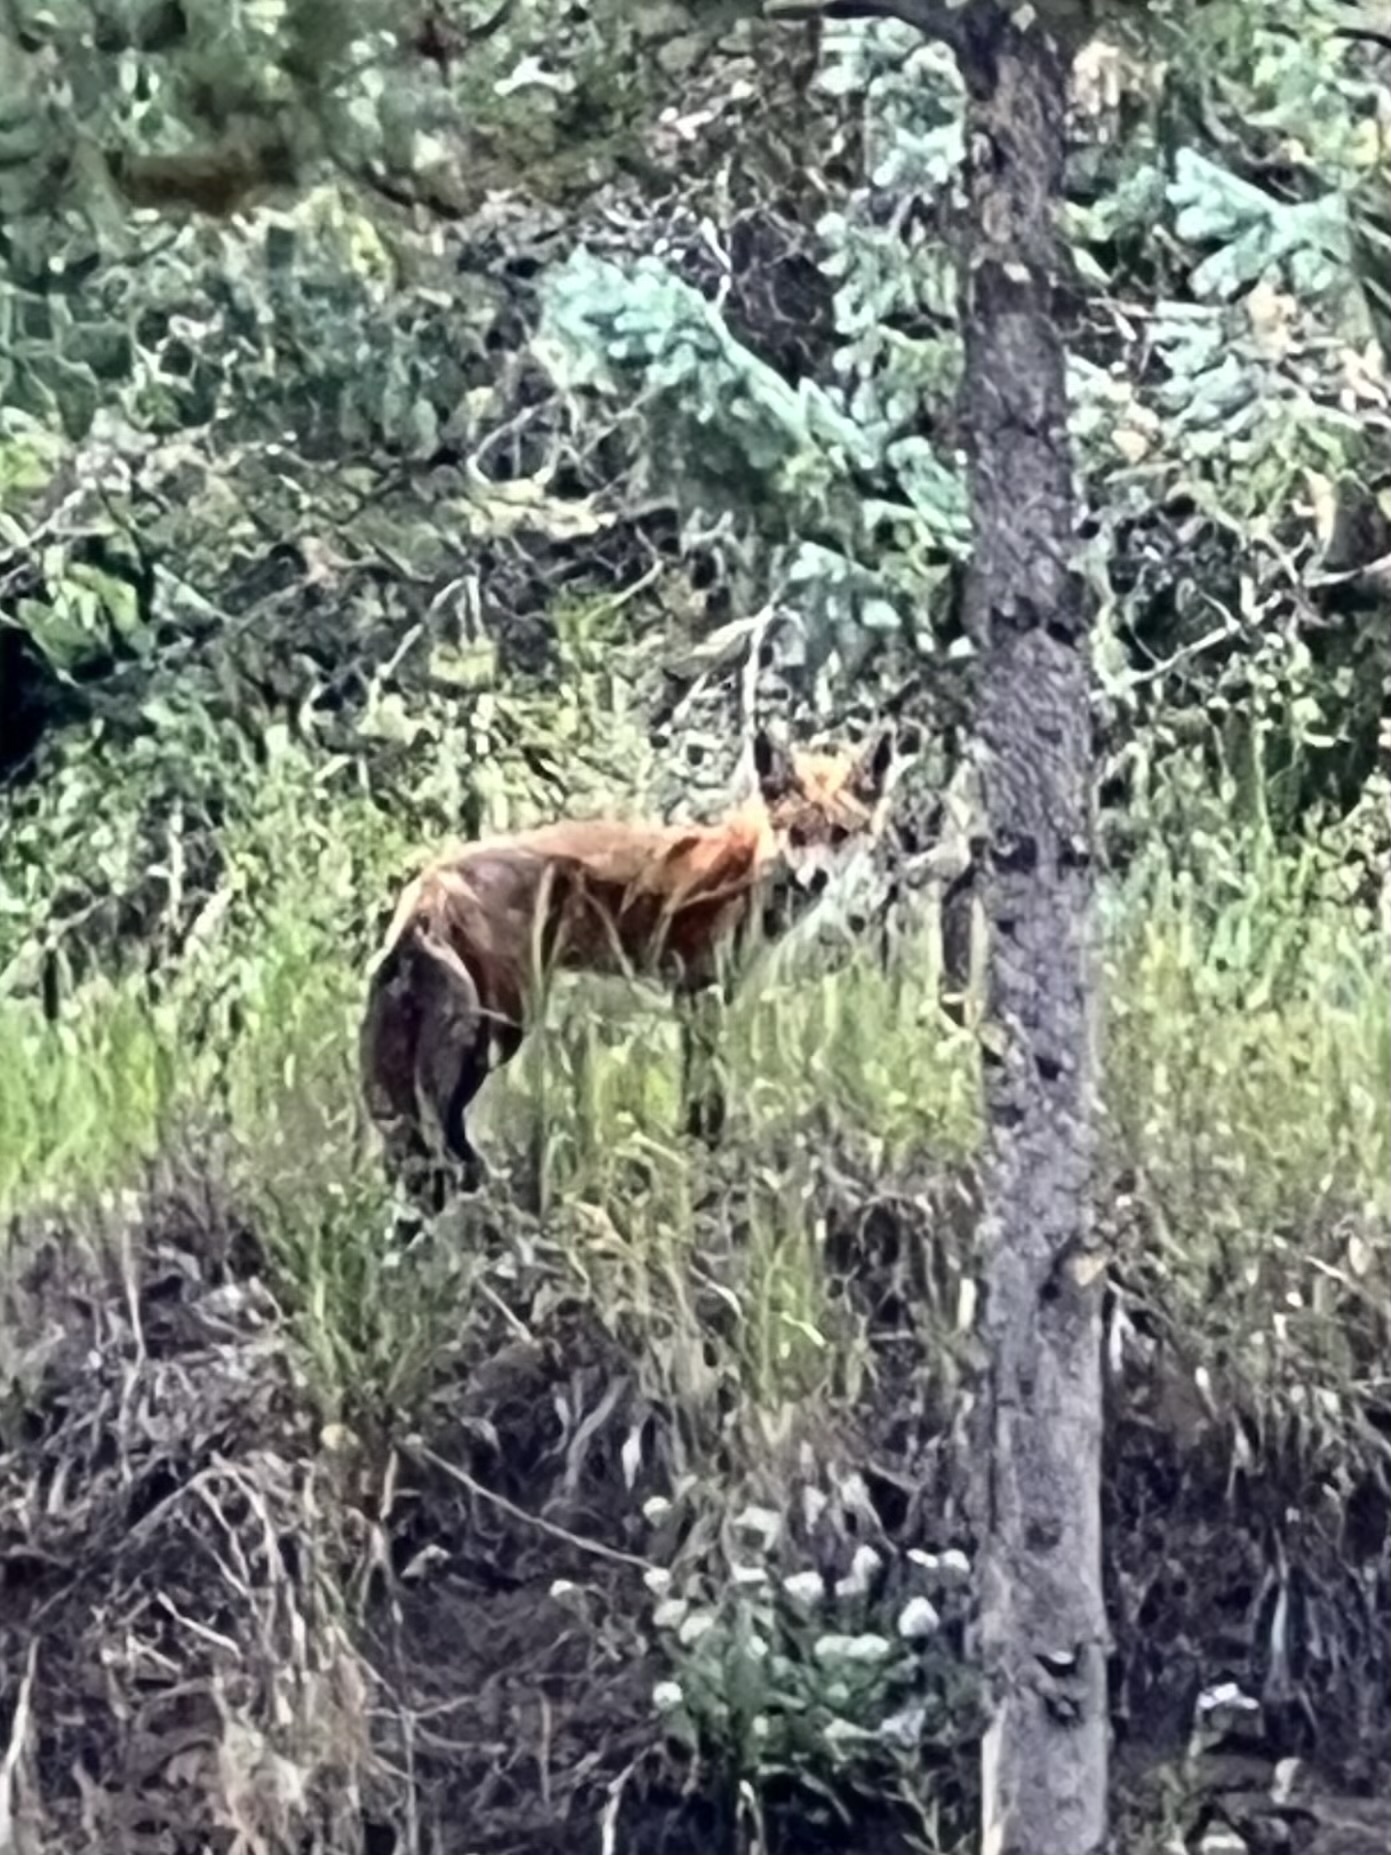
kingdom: Animalia
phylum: Chordata
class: Mammalia
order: Carnivora
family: Canidae
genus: Vulpes
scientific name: Vulpes vulpes
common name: Red fox
